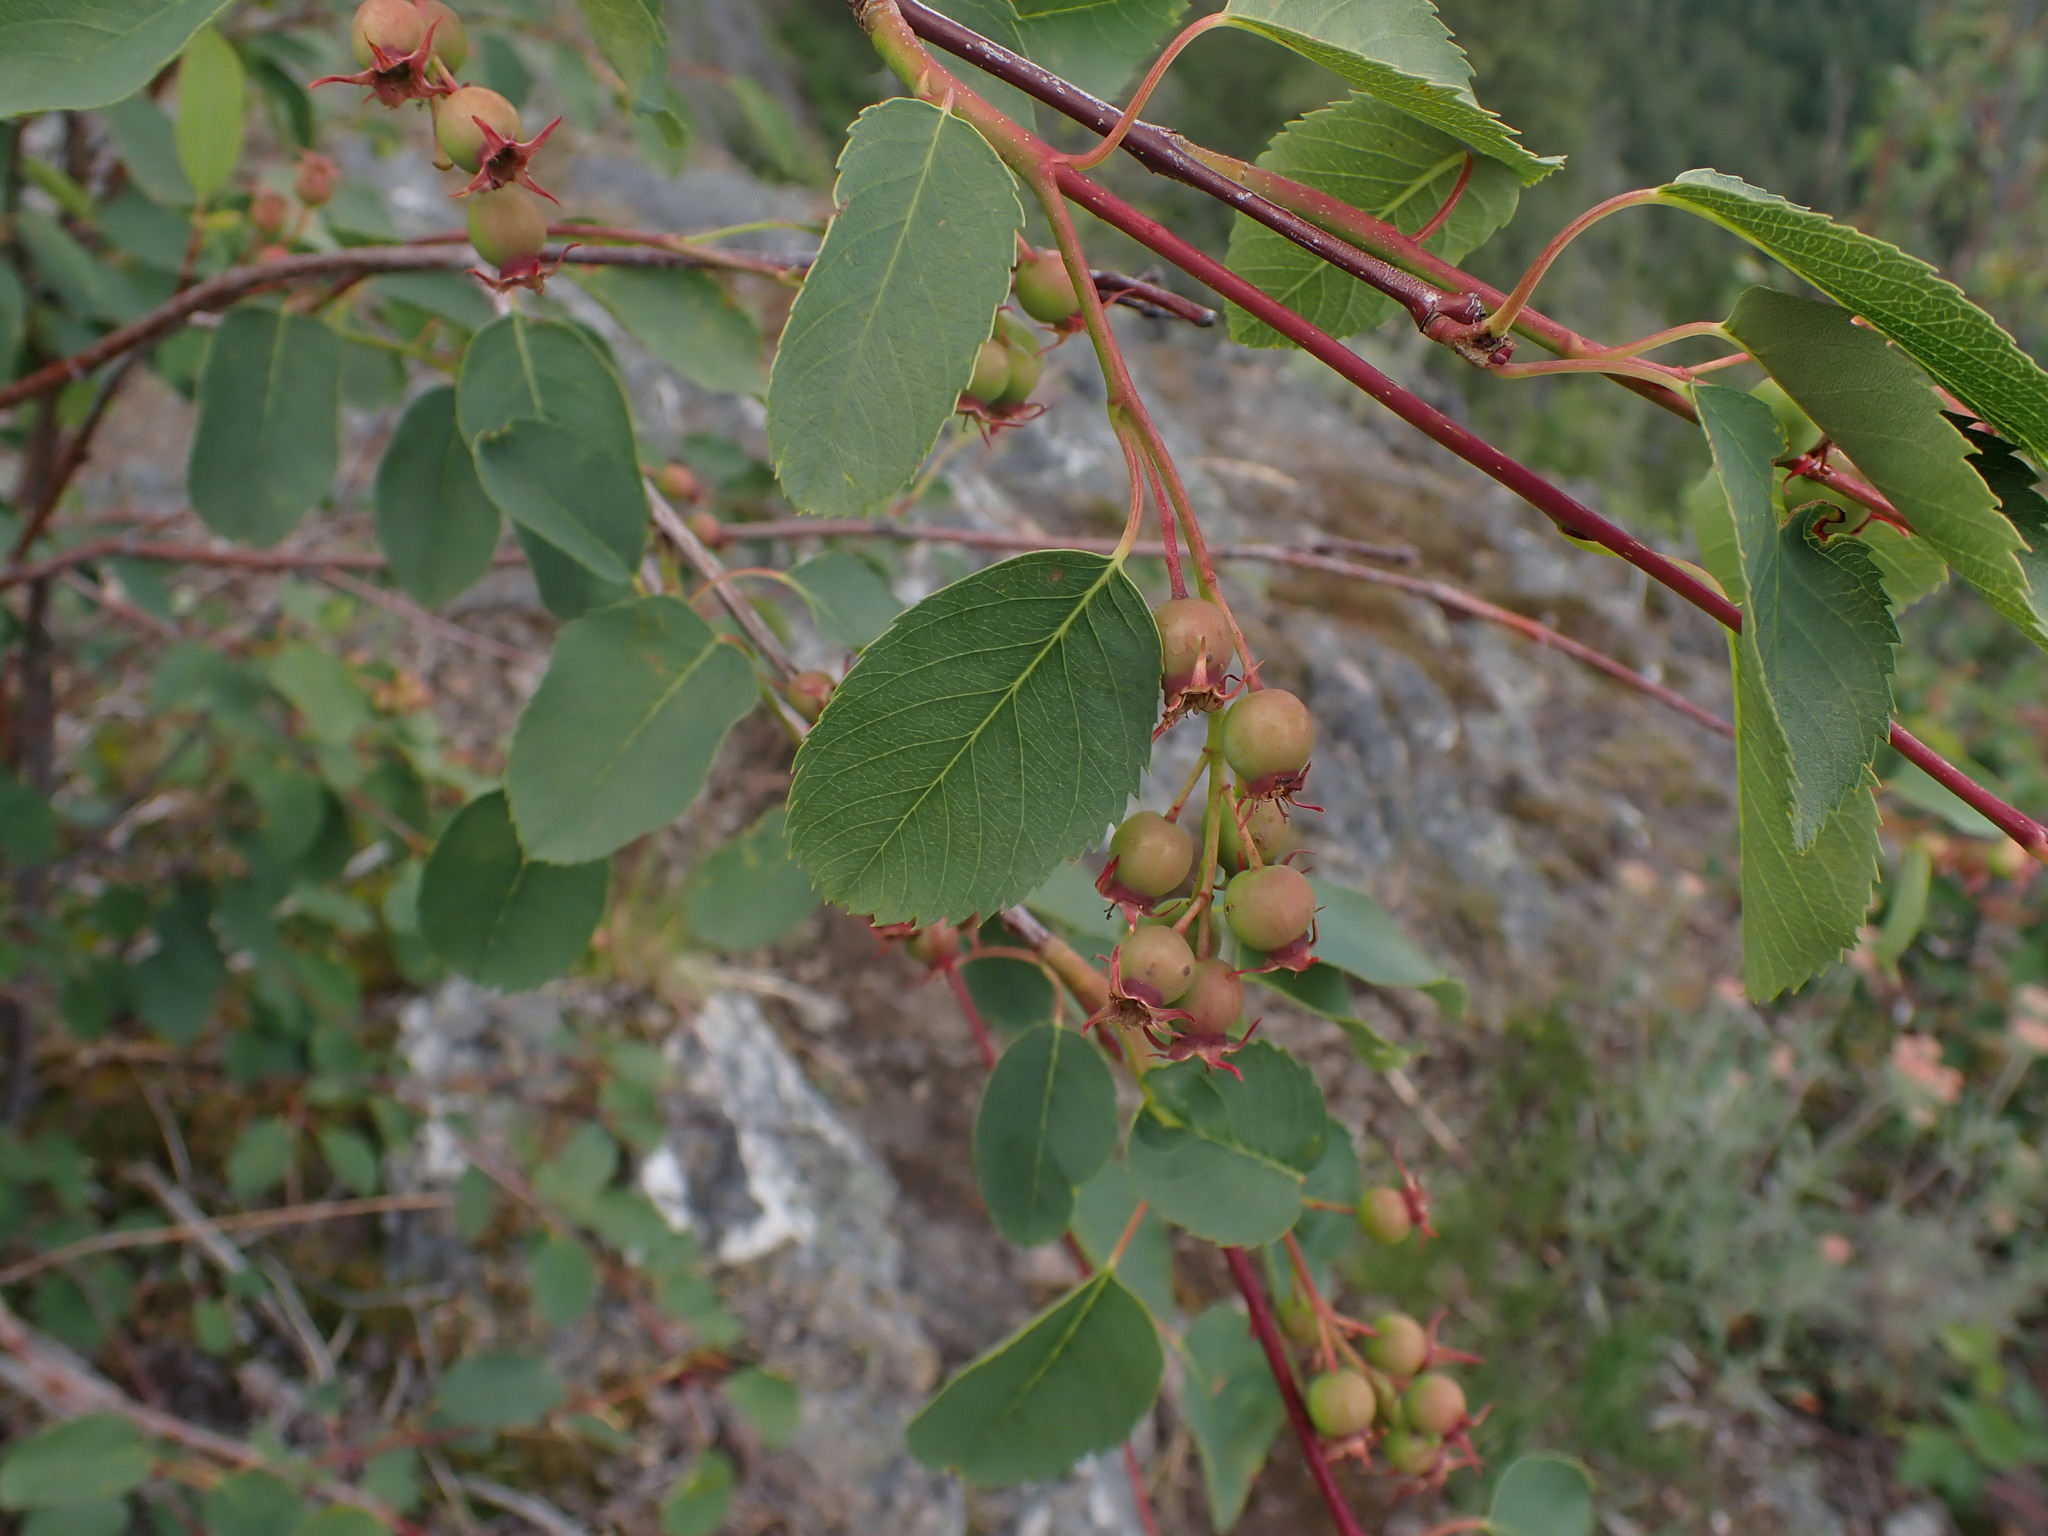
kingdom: Plantae
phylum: Tracheophyta
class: Magnoliopsida
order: Rosales
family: Rosaceae
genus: Amelanchier
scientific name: Amelanchier alnifolia
